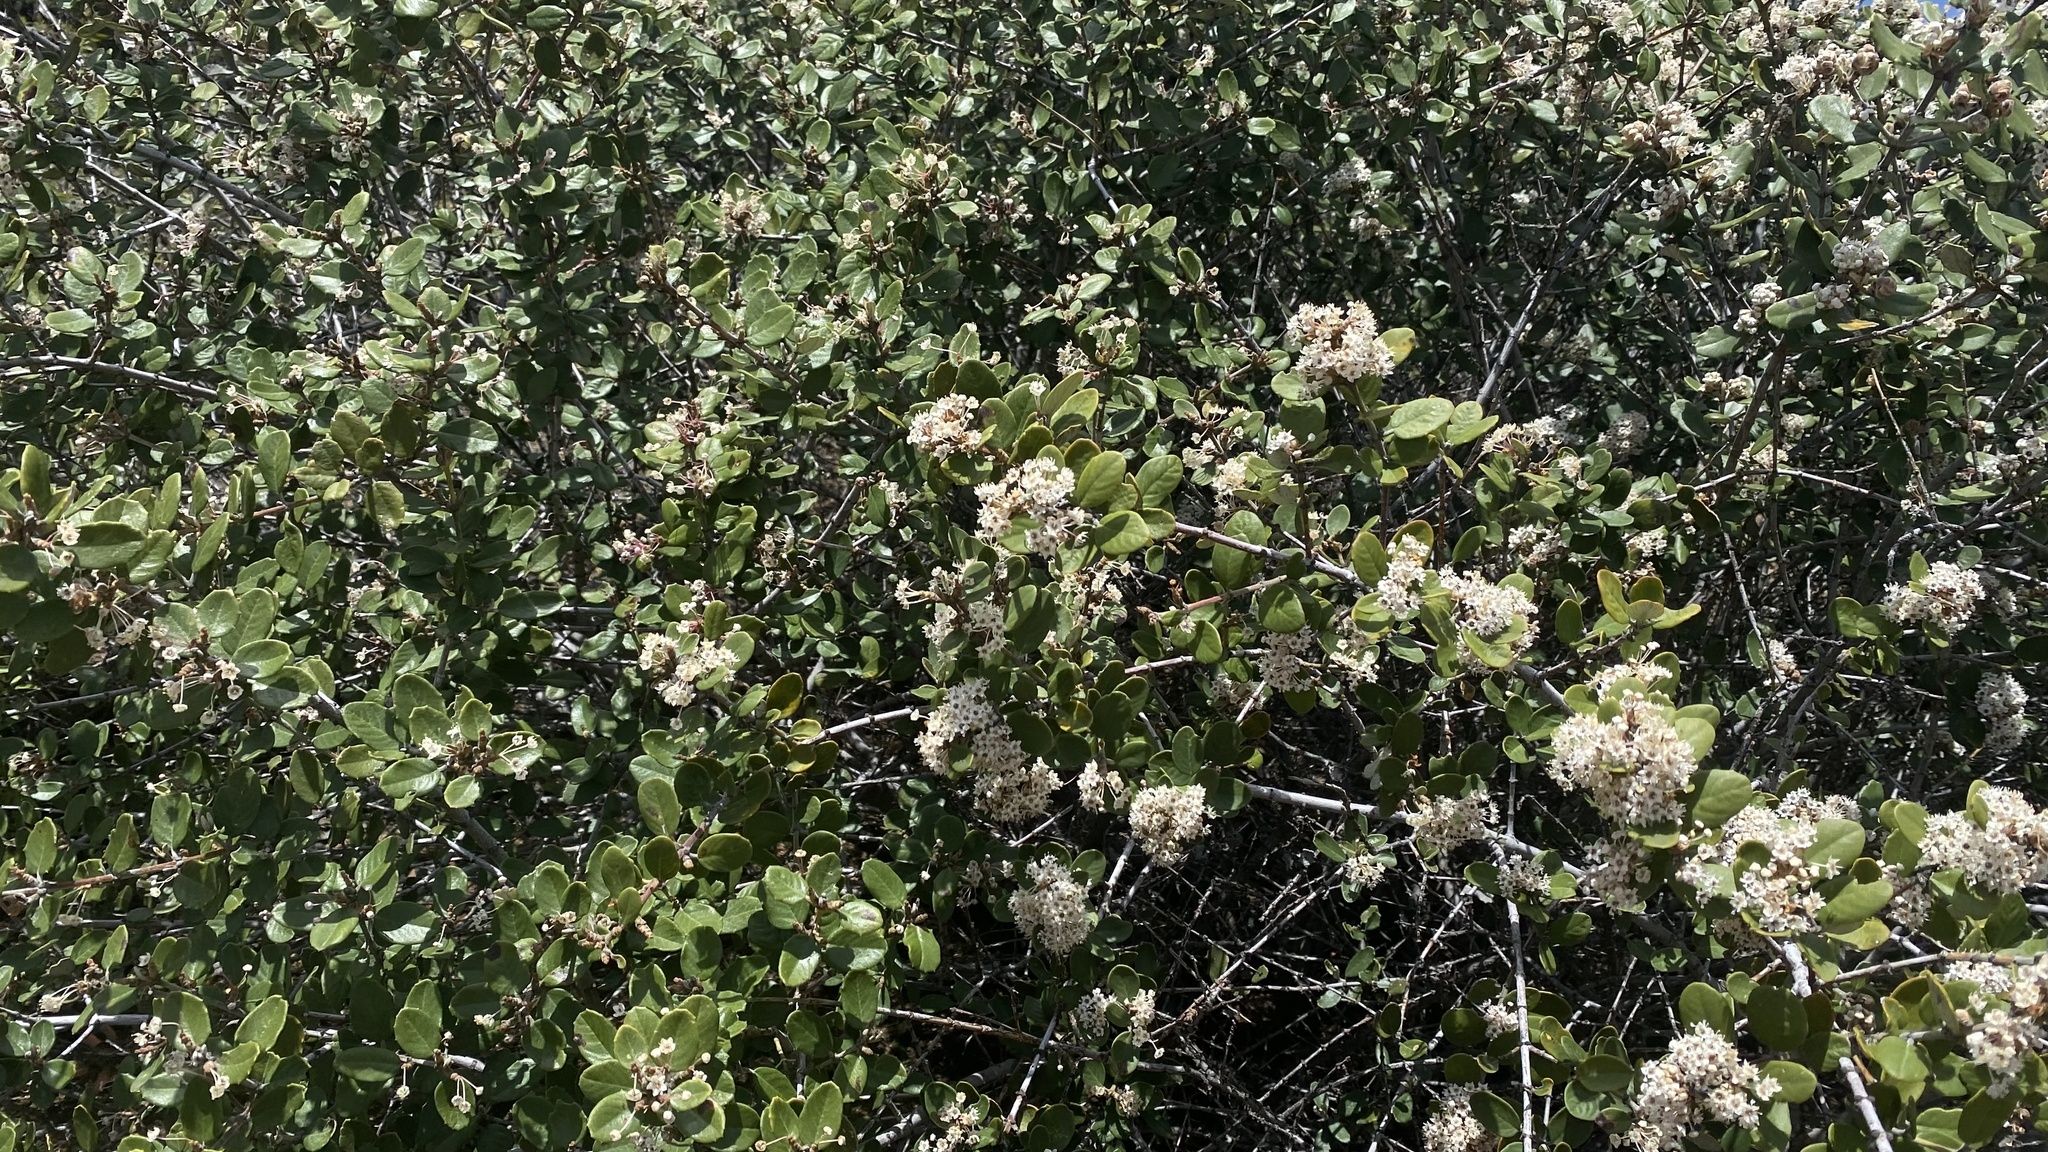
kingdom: Plantae
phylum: Tracheophyta
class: Magnoliopsida
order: Rosales
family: Rhamnaceae
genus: Ceanothus
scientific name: Ceanothus crassifolius
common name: Hoaryleaf ceanothus
